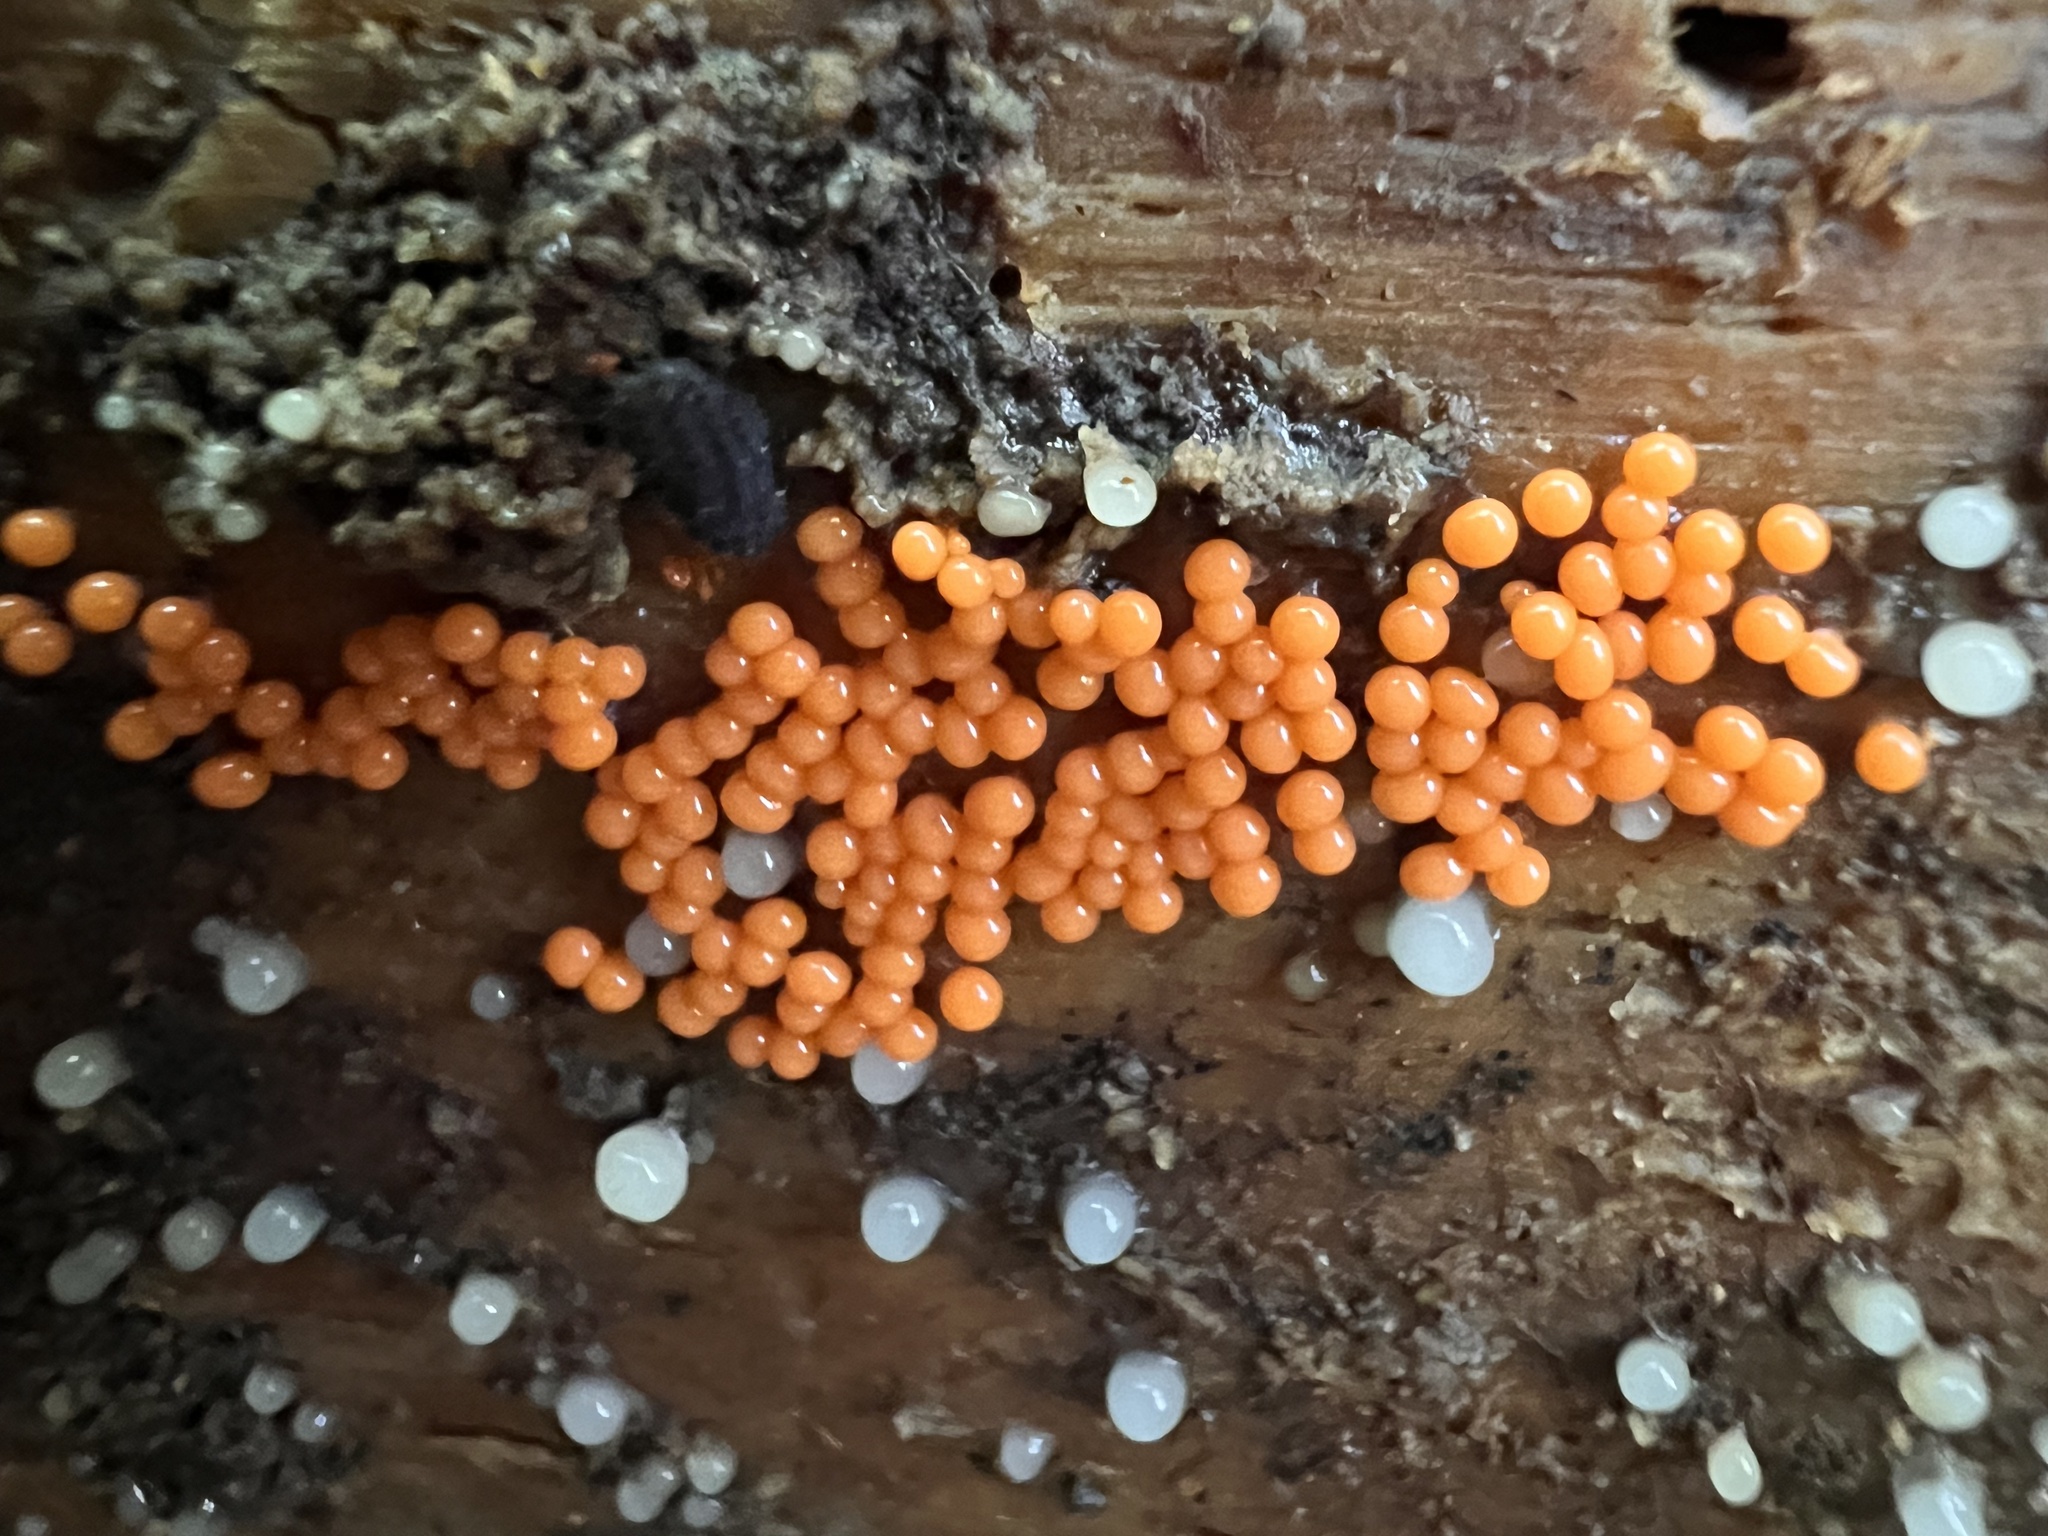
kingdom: Protozoa
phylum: Mycetozoa
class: Myxomycetes
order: Trichiales
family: Arcyriaceae
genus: Hemitrichia
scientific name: Hemitrichia decipiens
